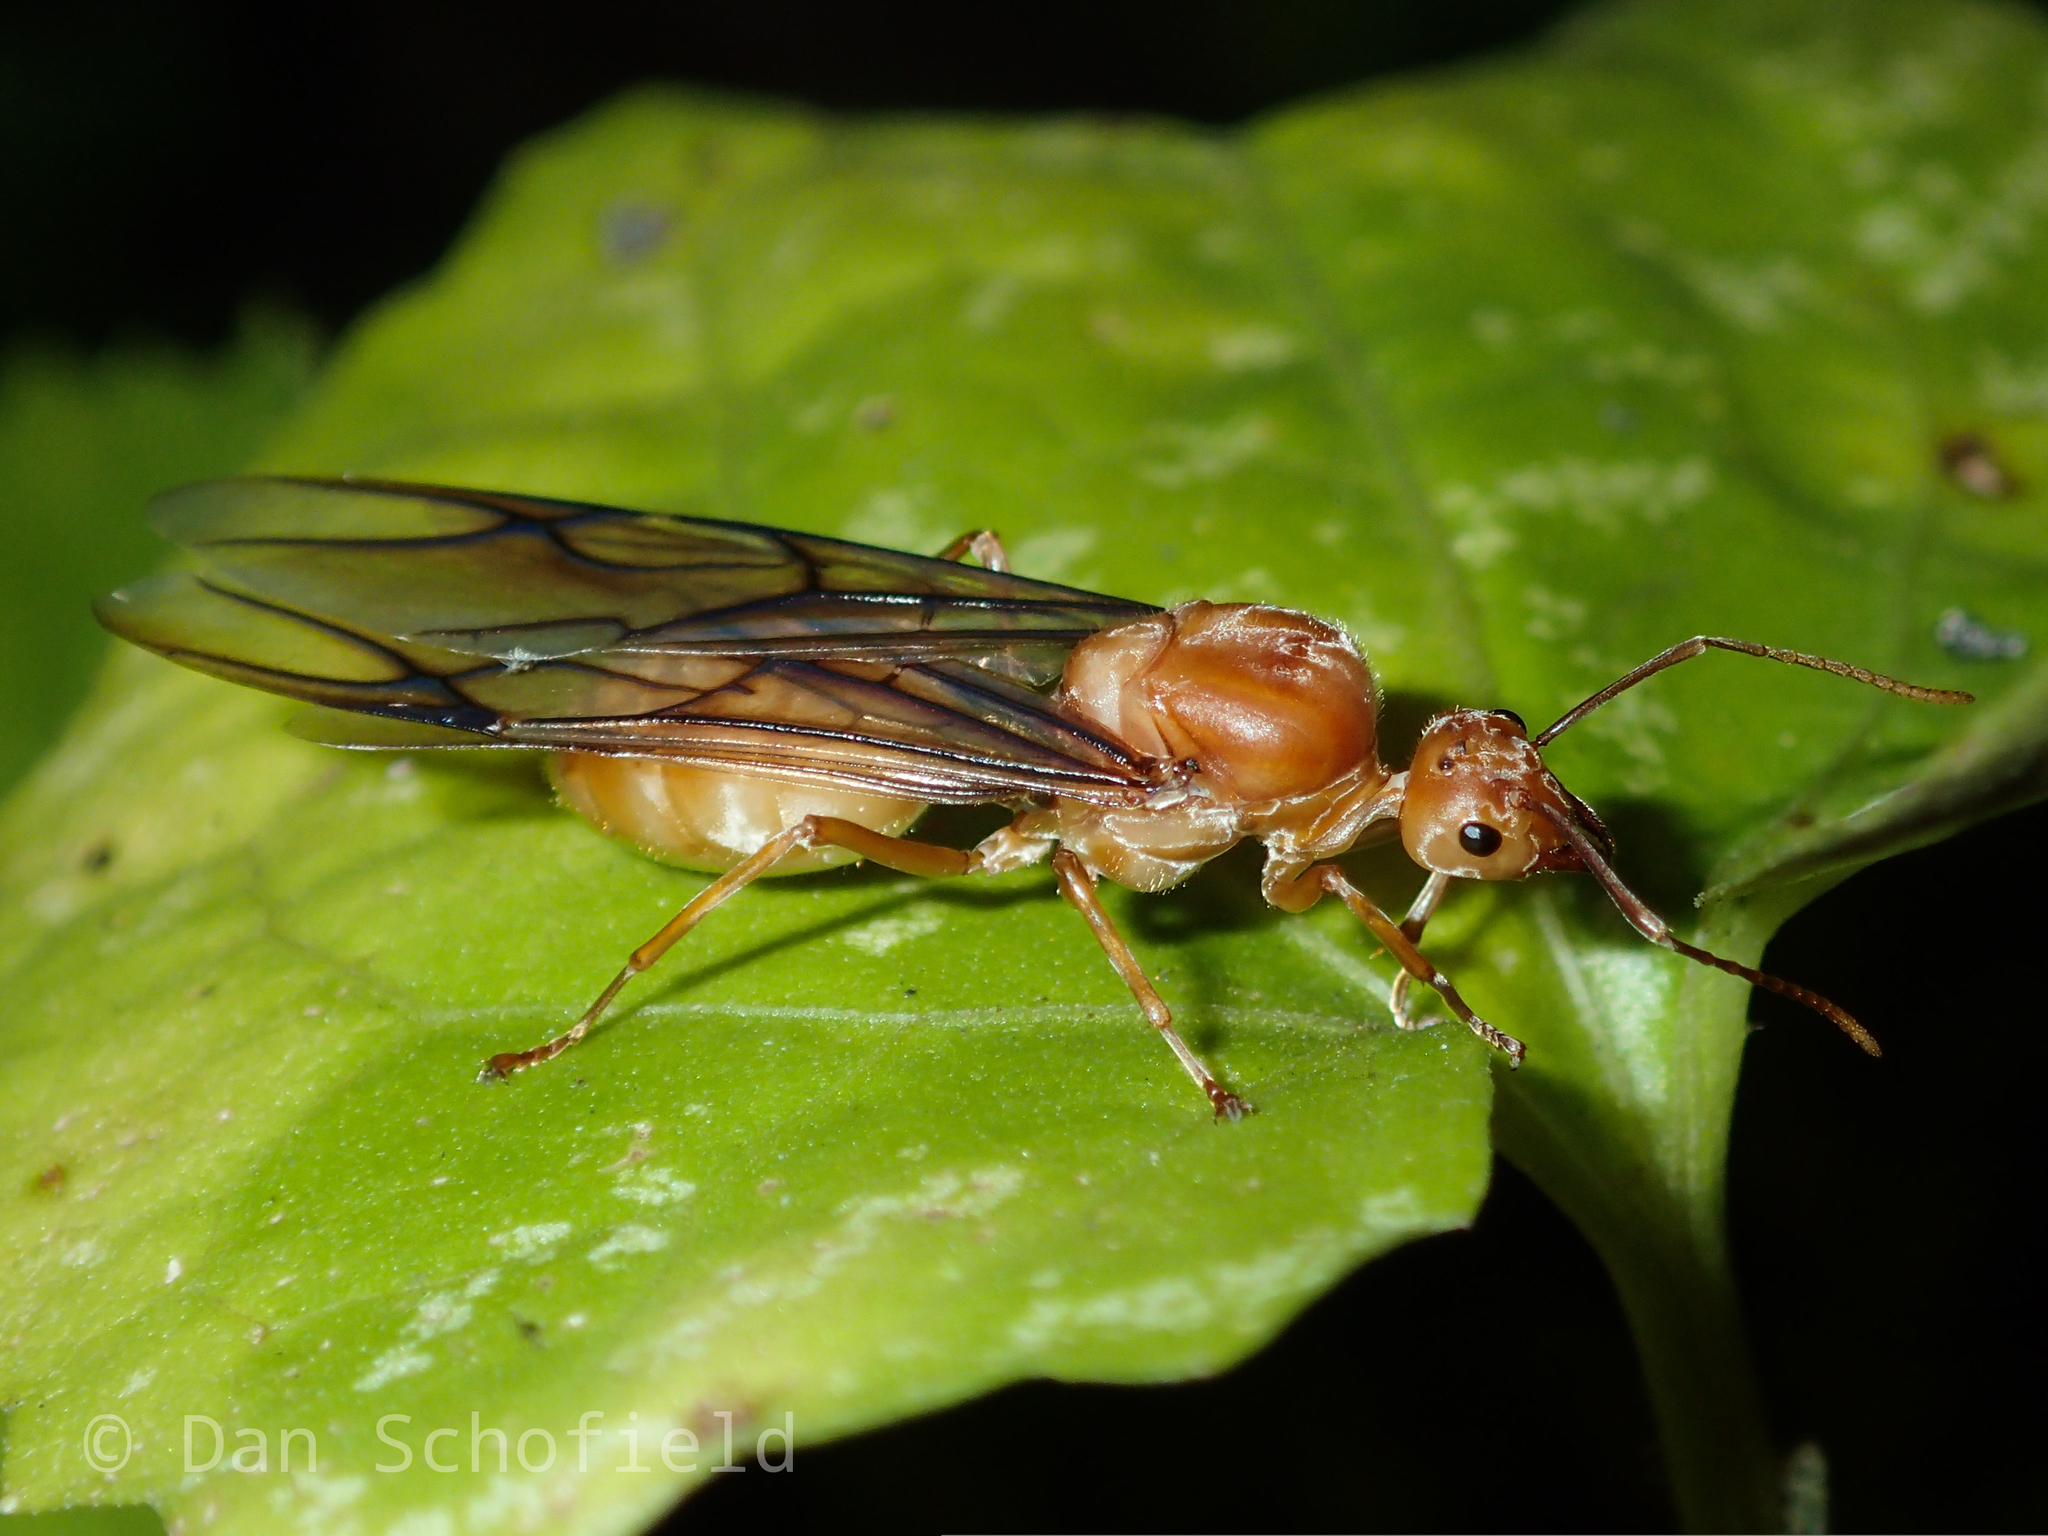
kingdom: Animalia
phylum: Arthropoda
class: Insecta
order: Hymenoptera
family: Formicidae
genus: Oecophylla
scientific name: Oecophylla smaragdina
